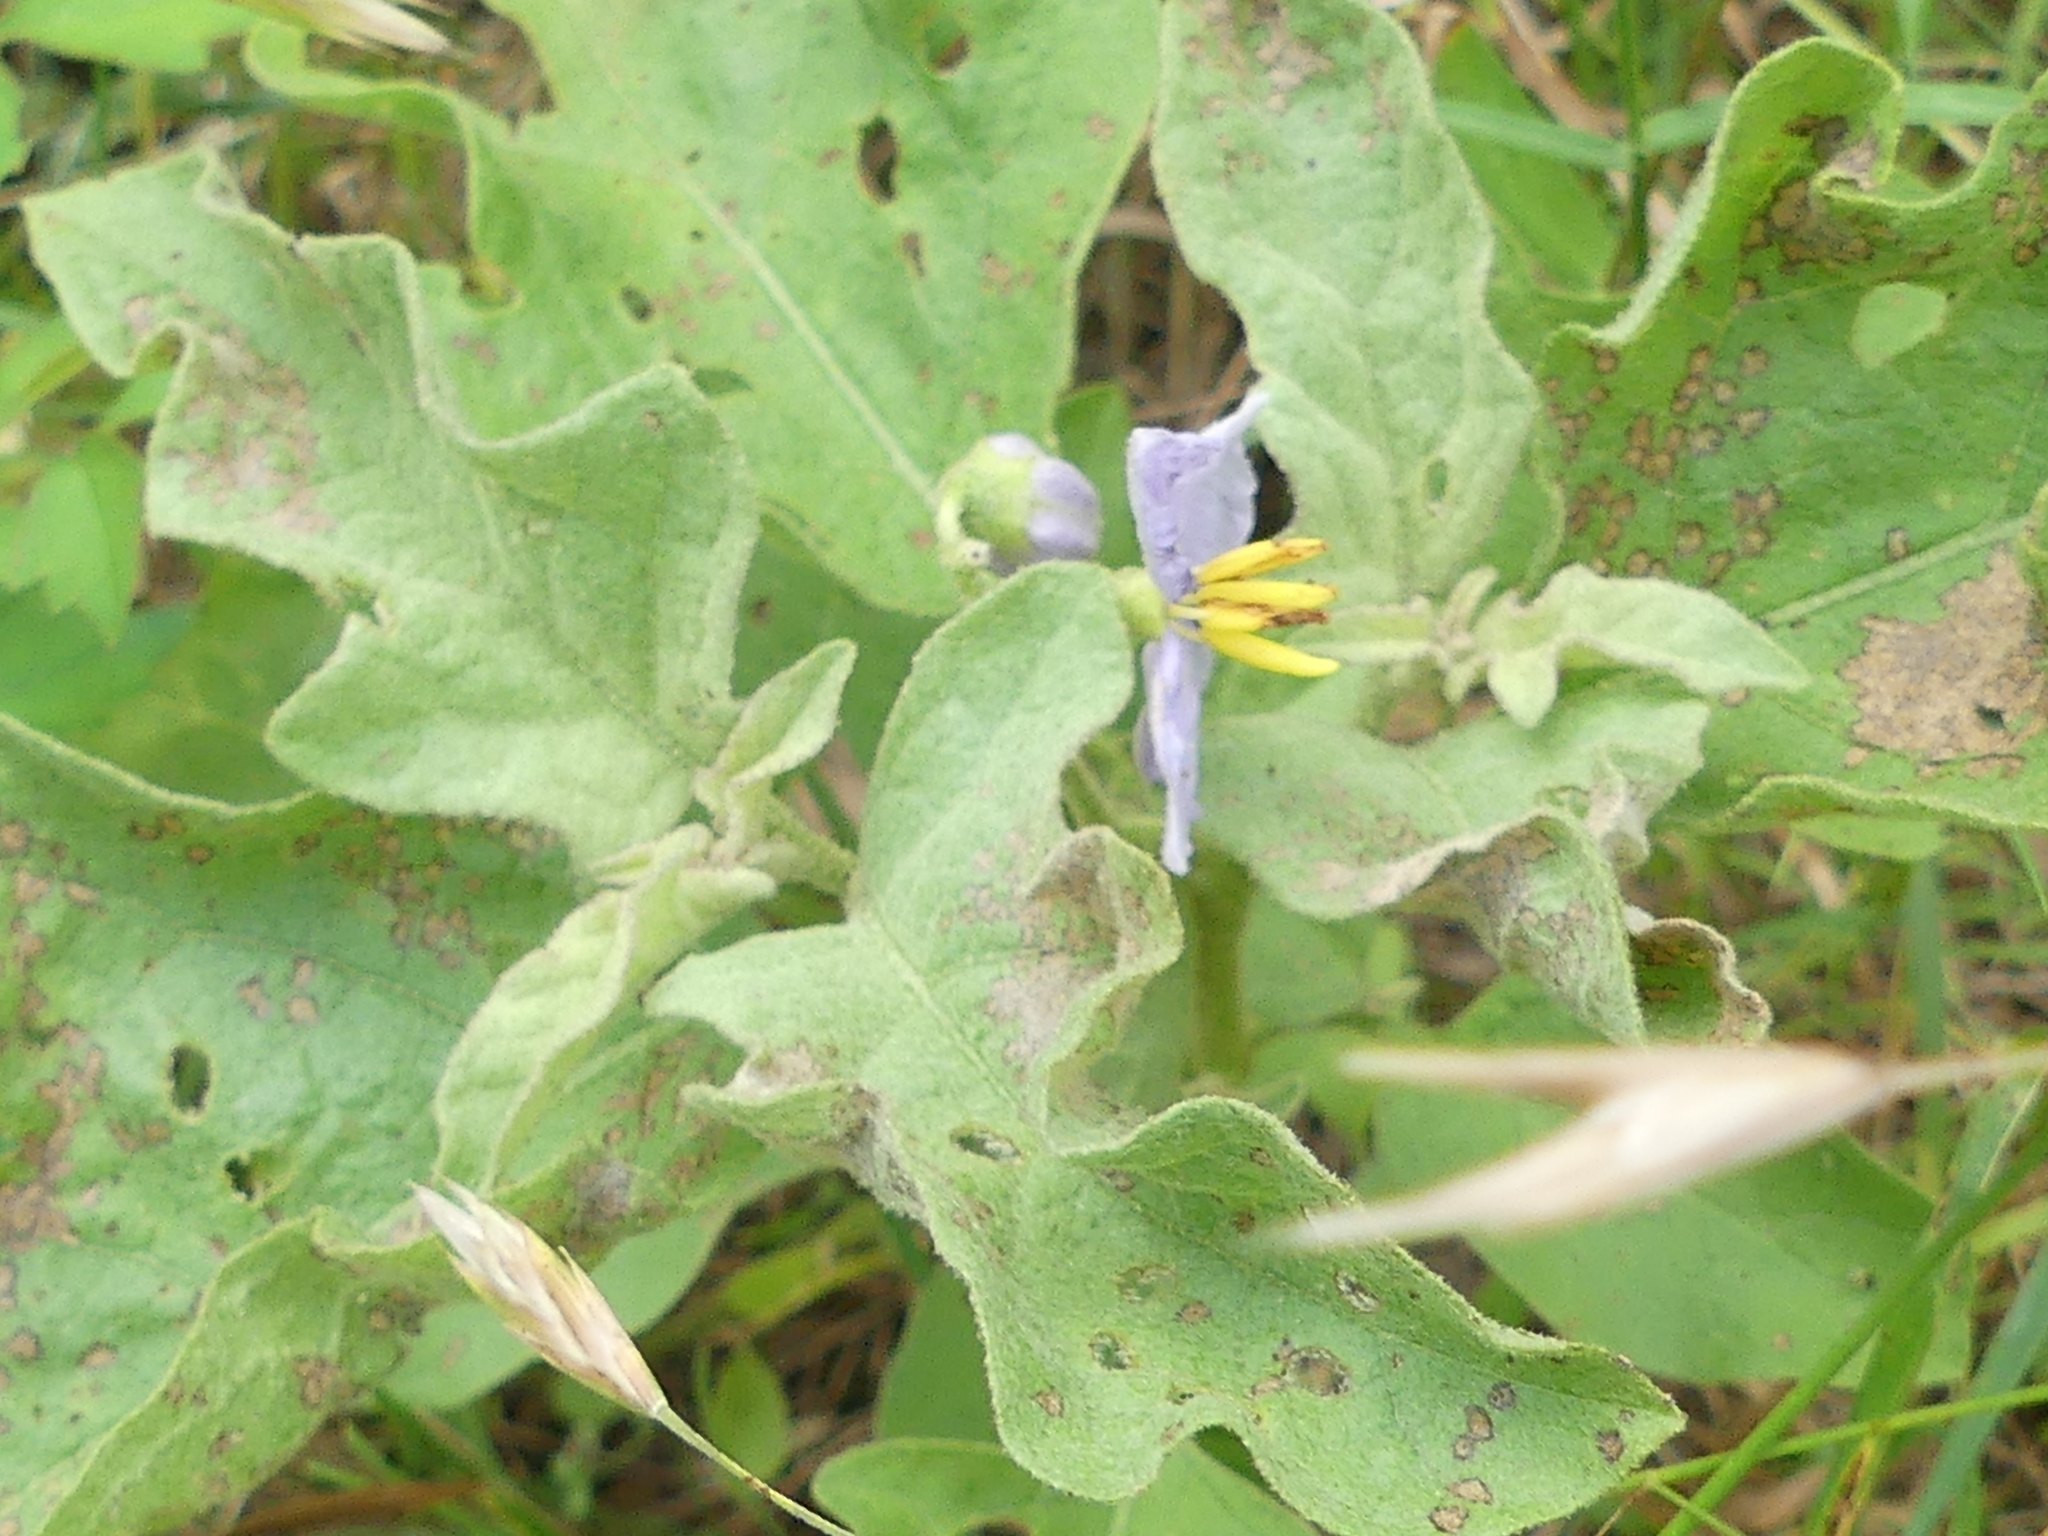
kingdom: Plantae
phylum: Tracheophyta
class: Magnoliopsida
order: Solanales
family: Solanaceae
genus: Solanum
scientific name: Solanum dimidiatum
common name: Carolina horse-nettle
